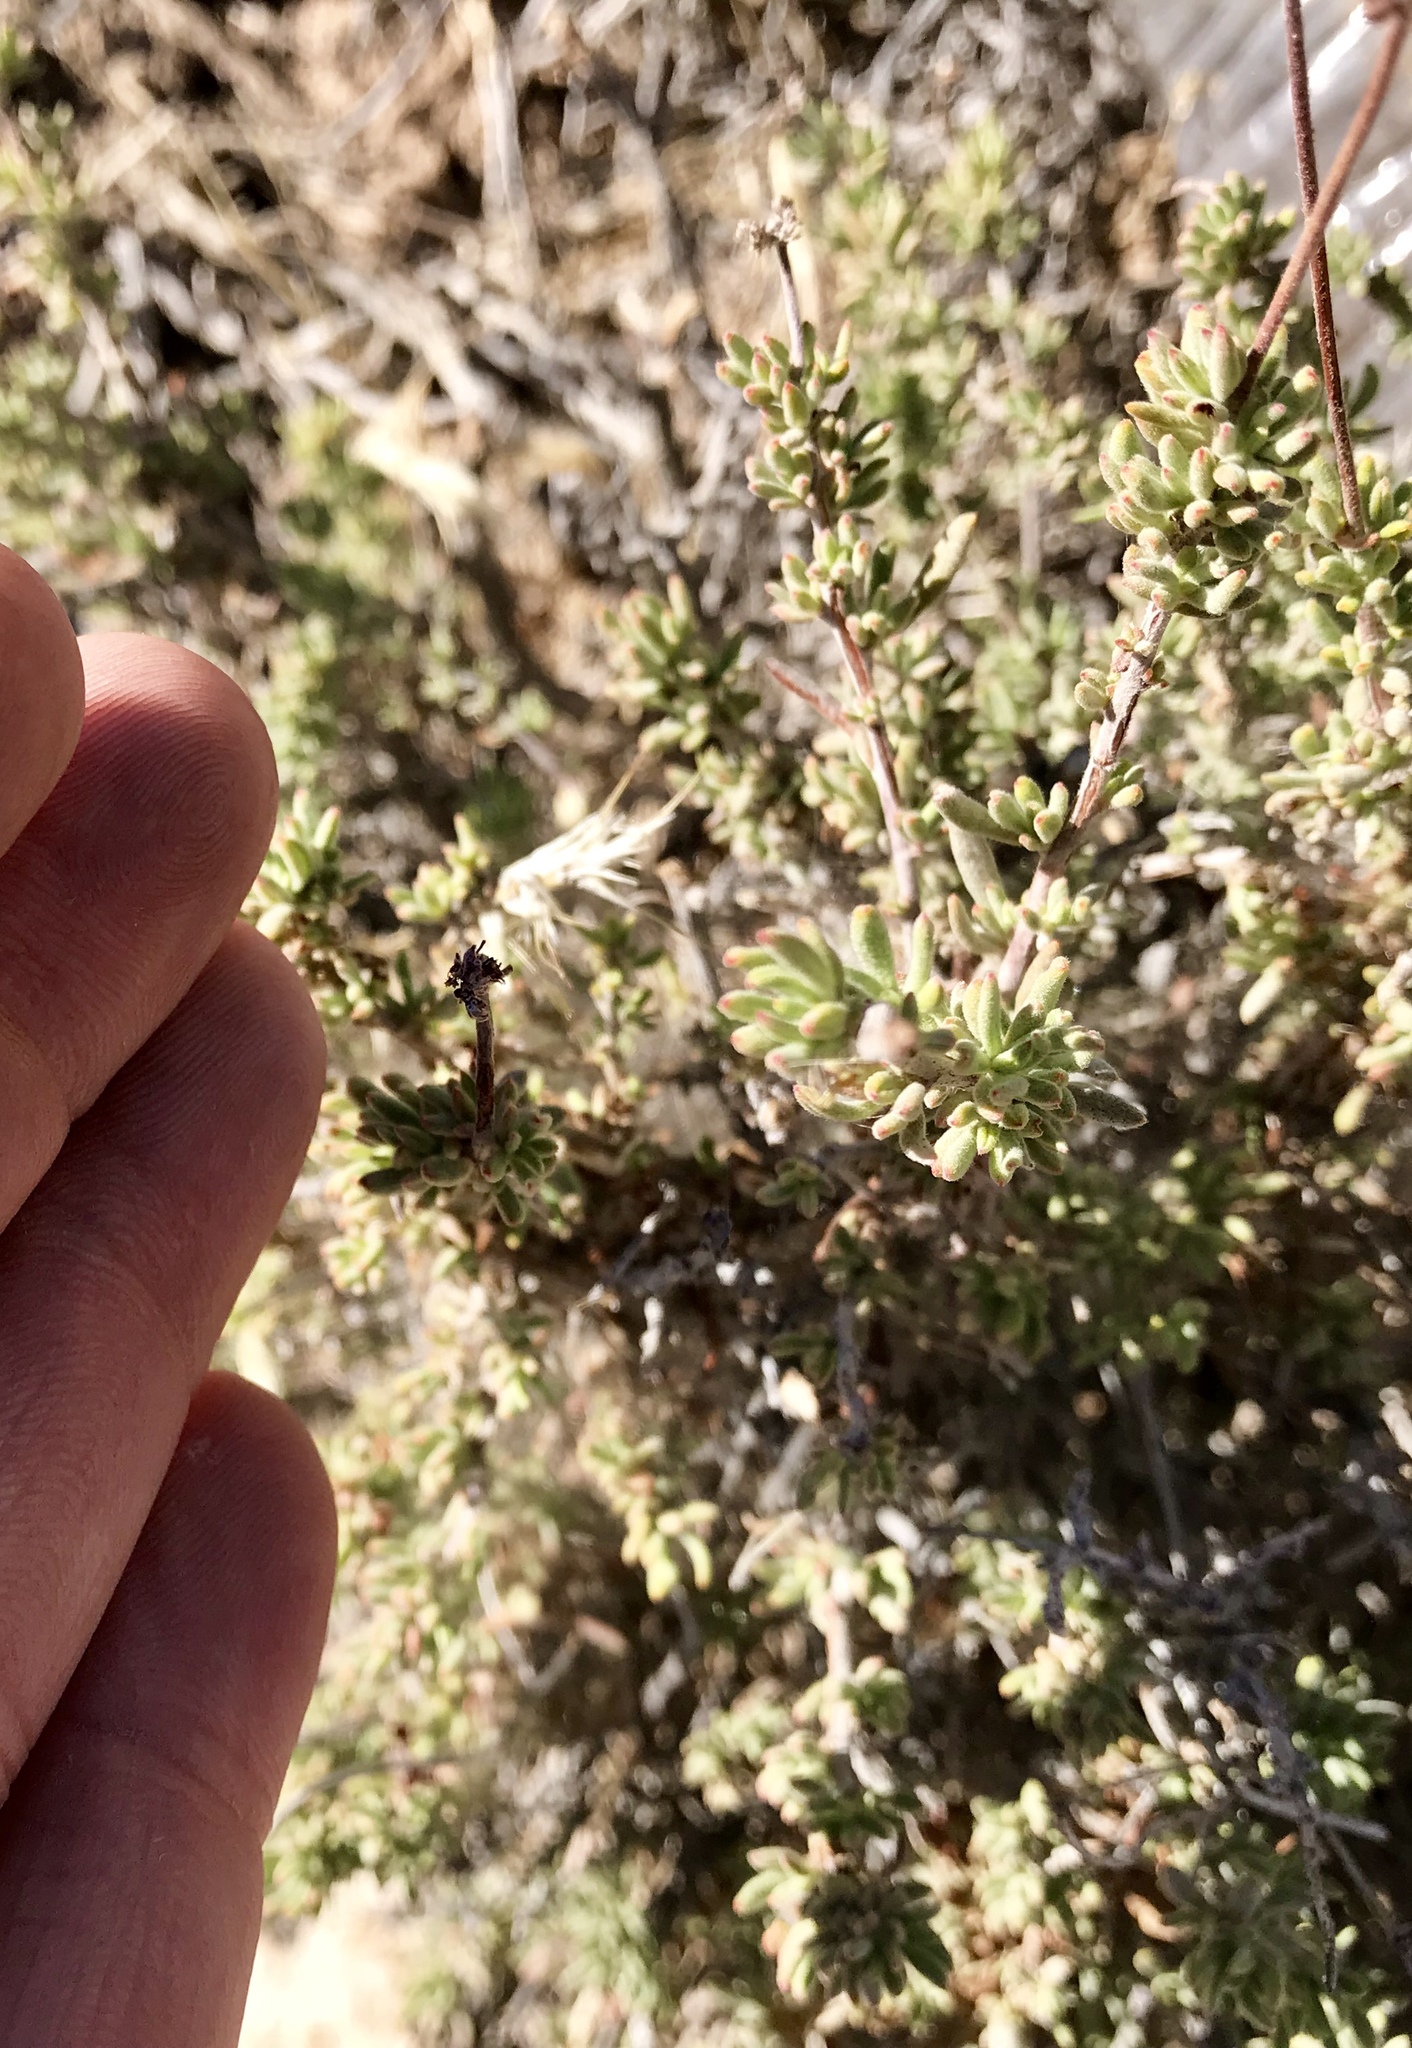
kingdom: Plantae
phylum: Tracheophyta
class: Magnoliopsida
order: Caryophyllales
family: Polygonaceae
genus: Eriogonum
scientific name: Eriogonum fasciculatum
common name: California wild buckwheat
